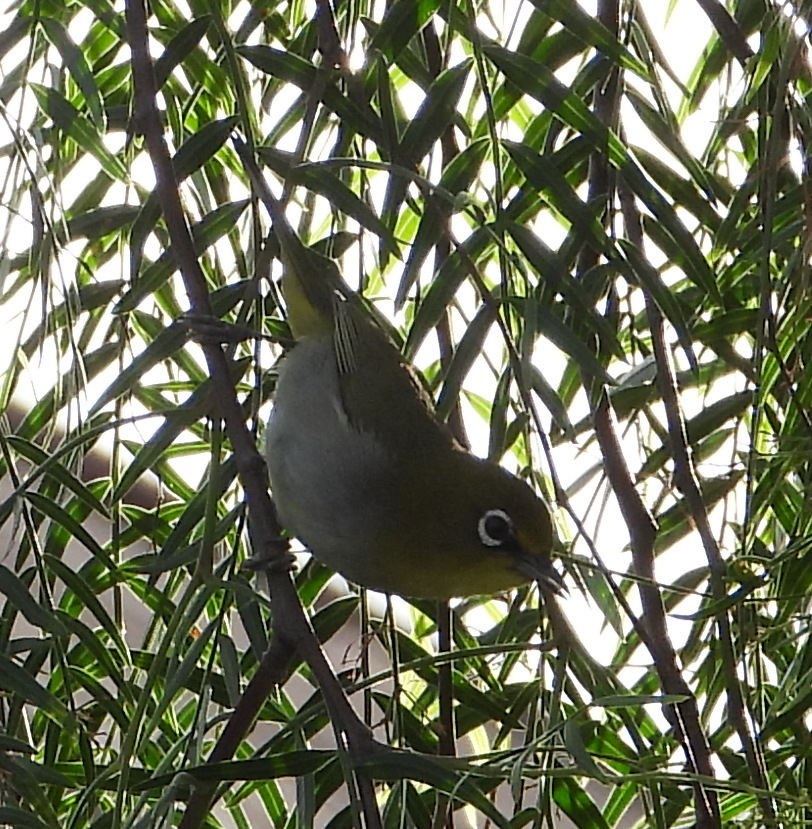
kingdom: Animalia
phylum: Chordata
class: Aves
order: Passeriformes
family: Zosteropidae
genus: Zosterops
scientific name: Zosterops virens
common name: Cape white-eye
